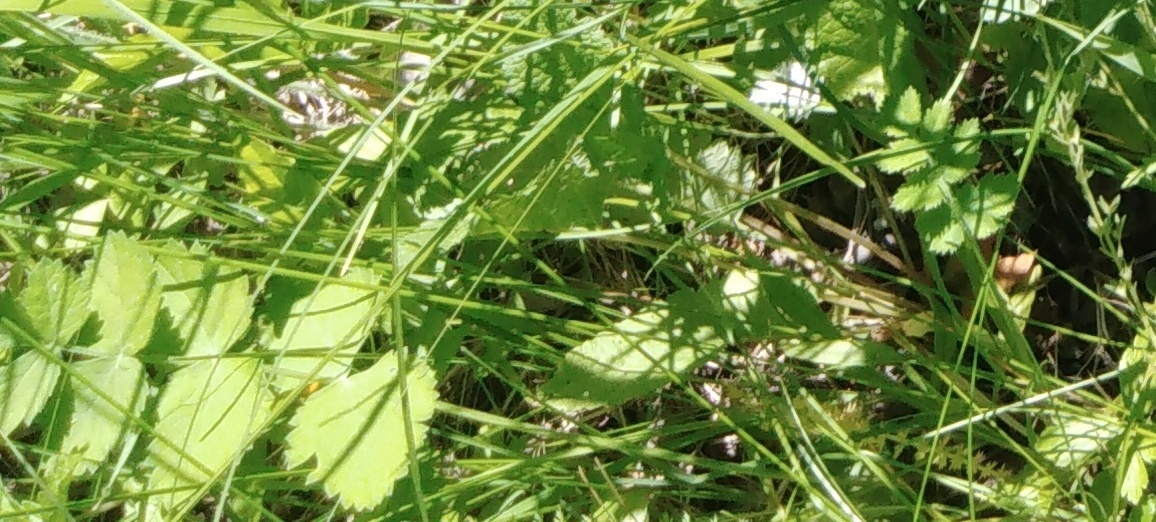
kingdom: Plantae
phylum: Tracheophyta
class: Magnoliopsida
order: Apiales
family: Apiaceae
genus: Pimpinella
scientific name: Pimpinella saxifraga
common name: Burnet-saxifrage
